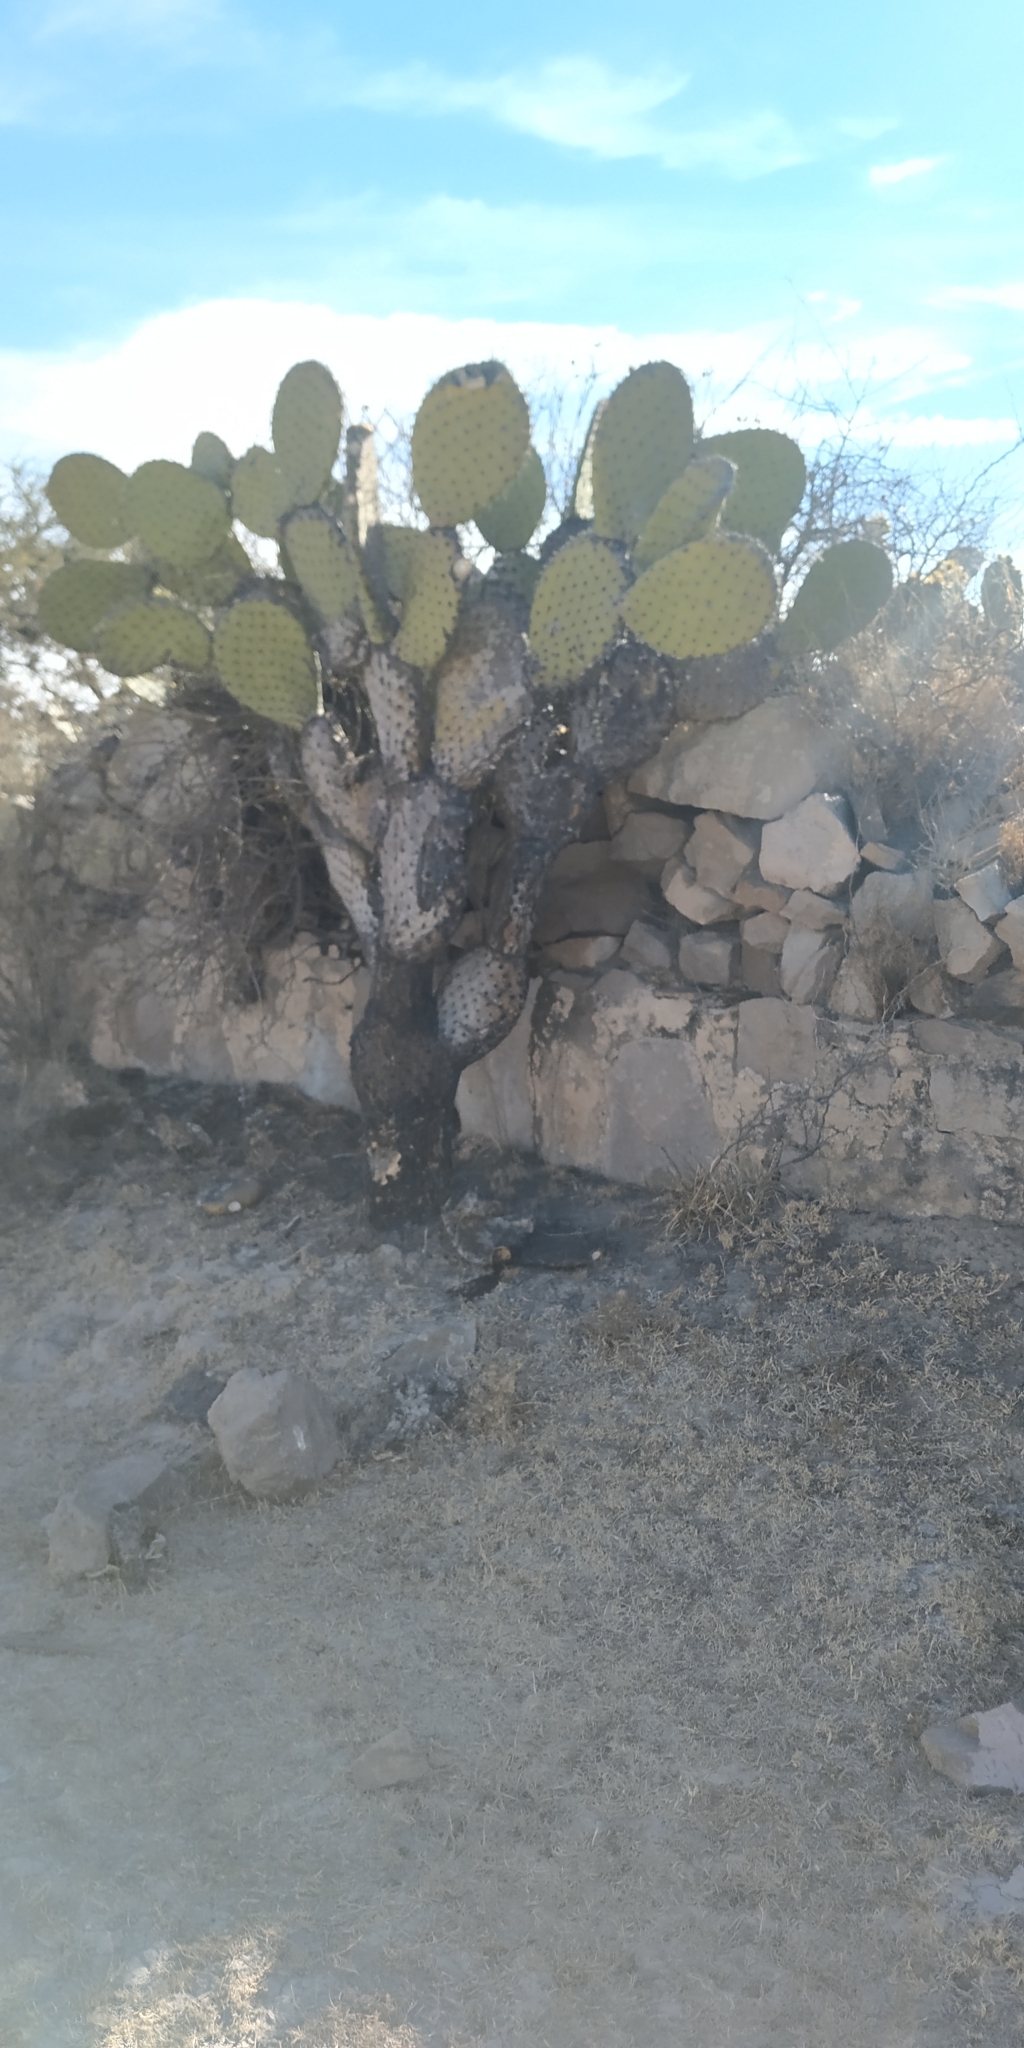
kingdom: Plantae
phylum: Tracheophyta
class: Magnoliopsida
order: Caryophyllales
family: Cactaceae
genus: Opuntia
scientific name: Opuntia hyptiacantha
